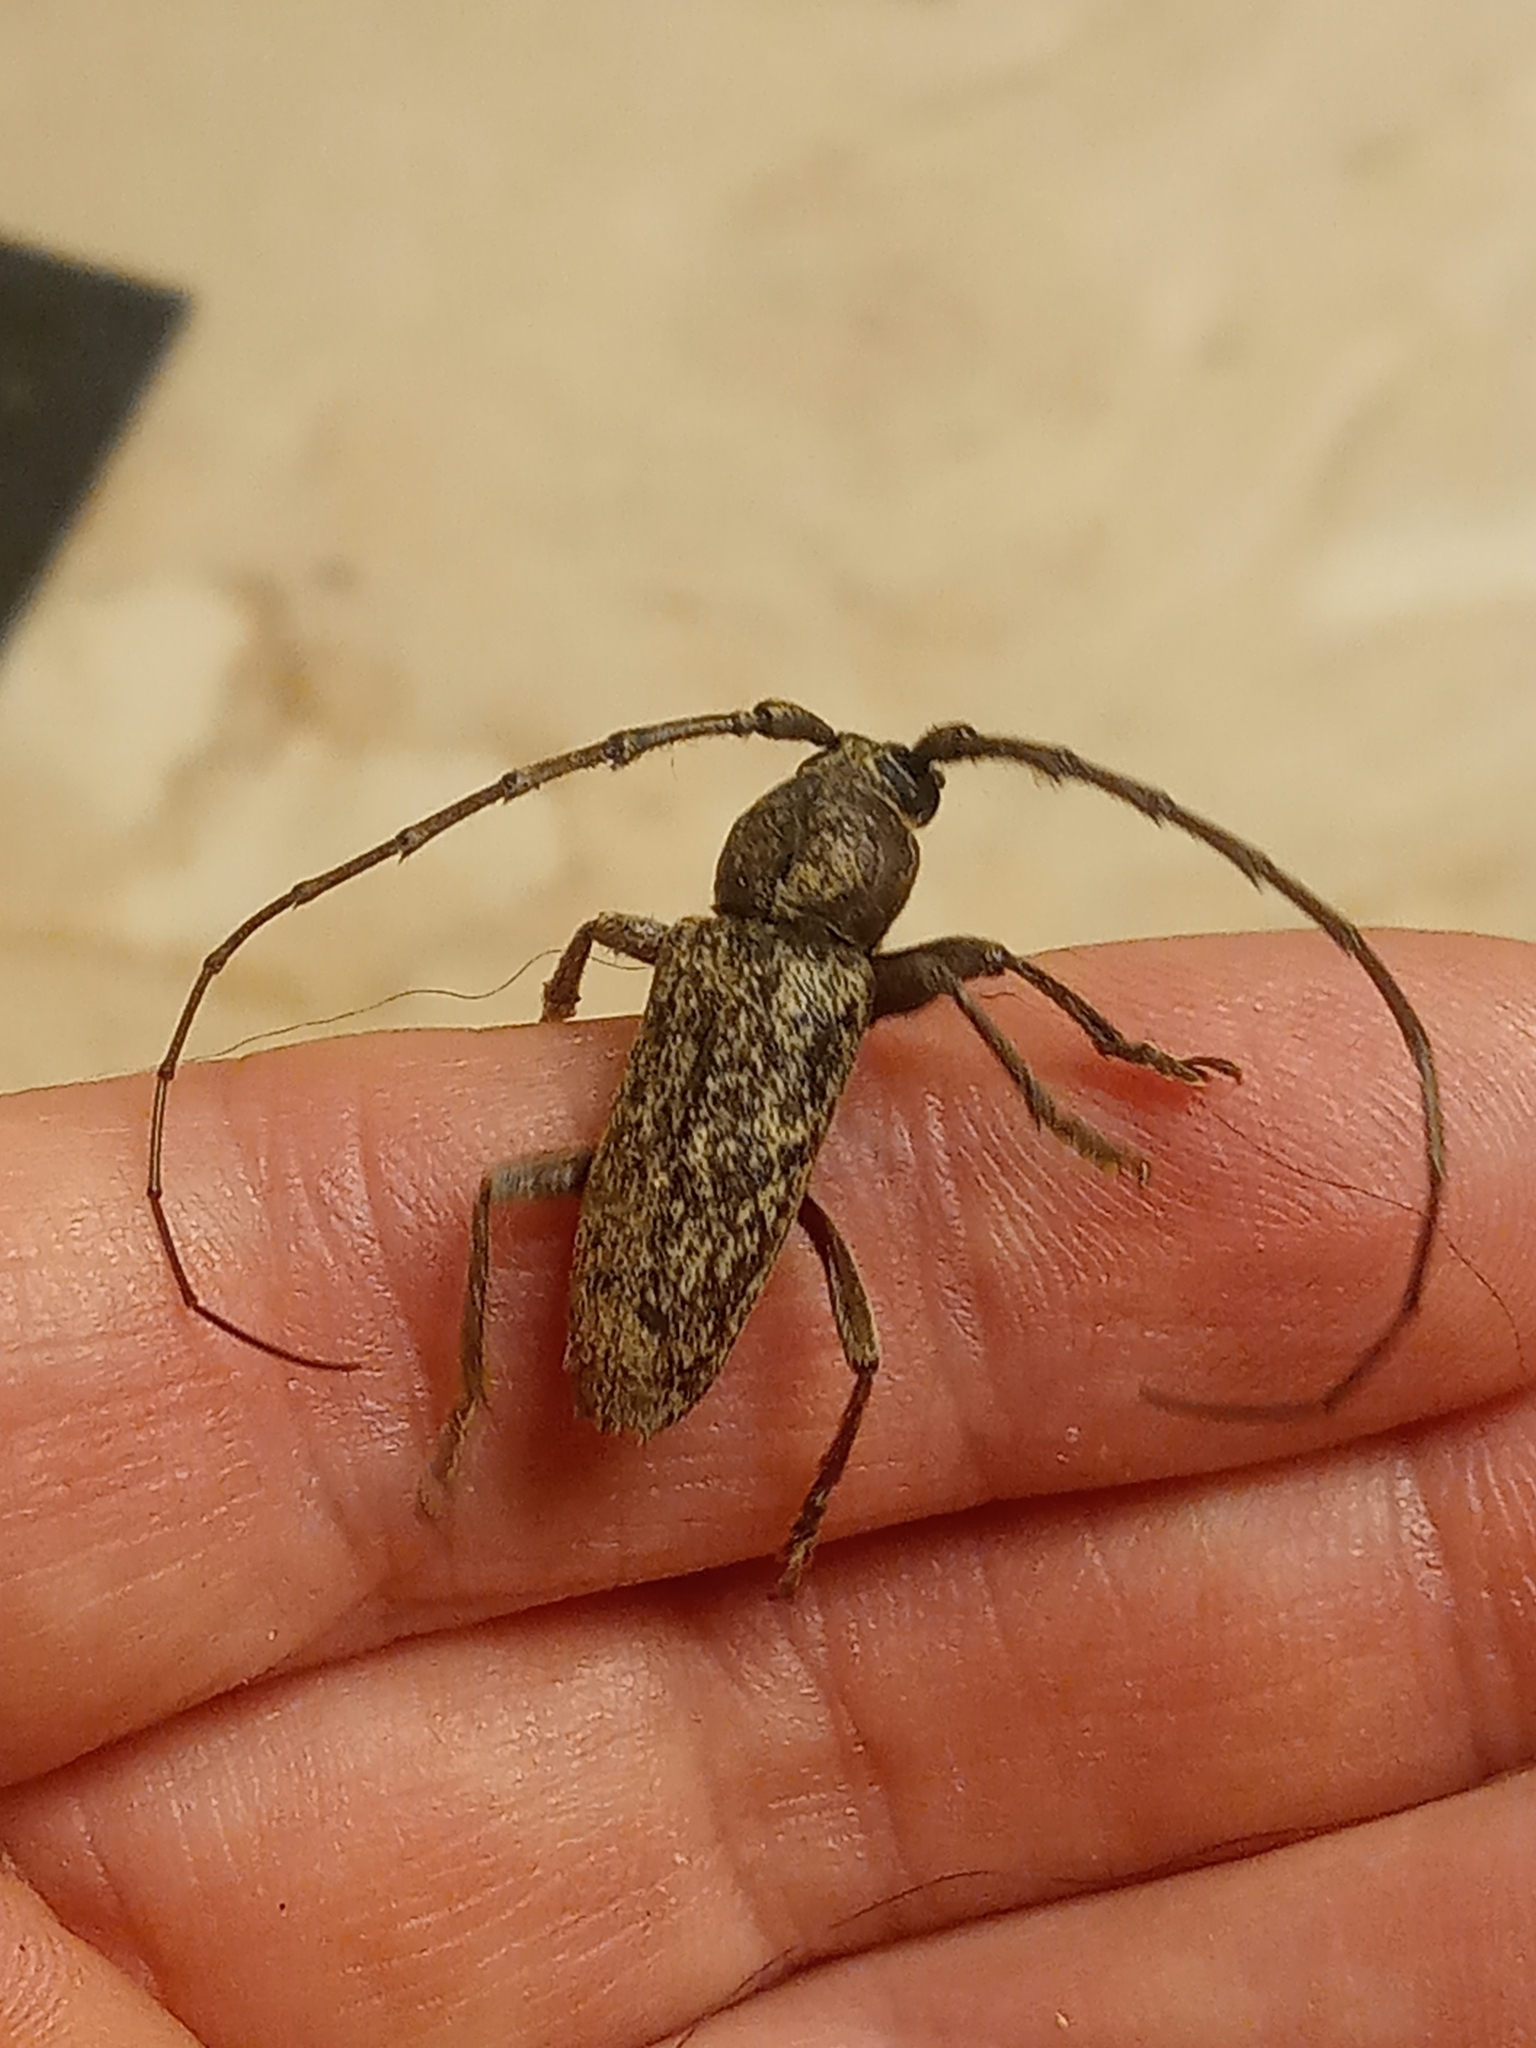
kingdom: Animalia
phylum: Arthropoda
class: Insecta
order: Coleoptera
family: Cerambycidae
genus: Enaphalodes
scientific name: Enaphalodes atomarius
